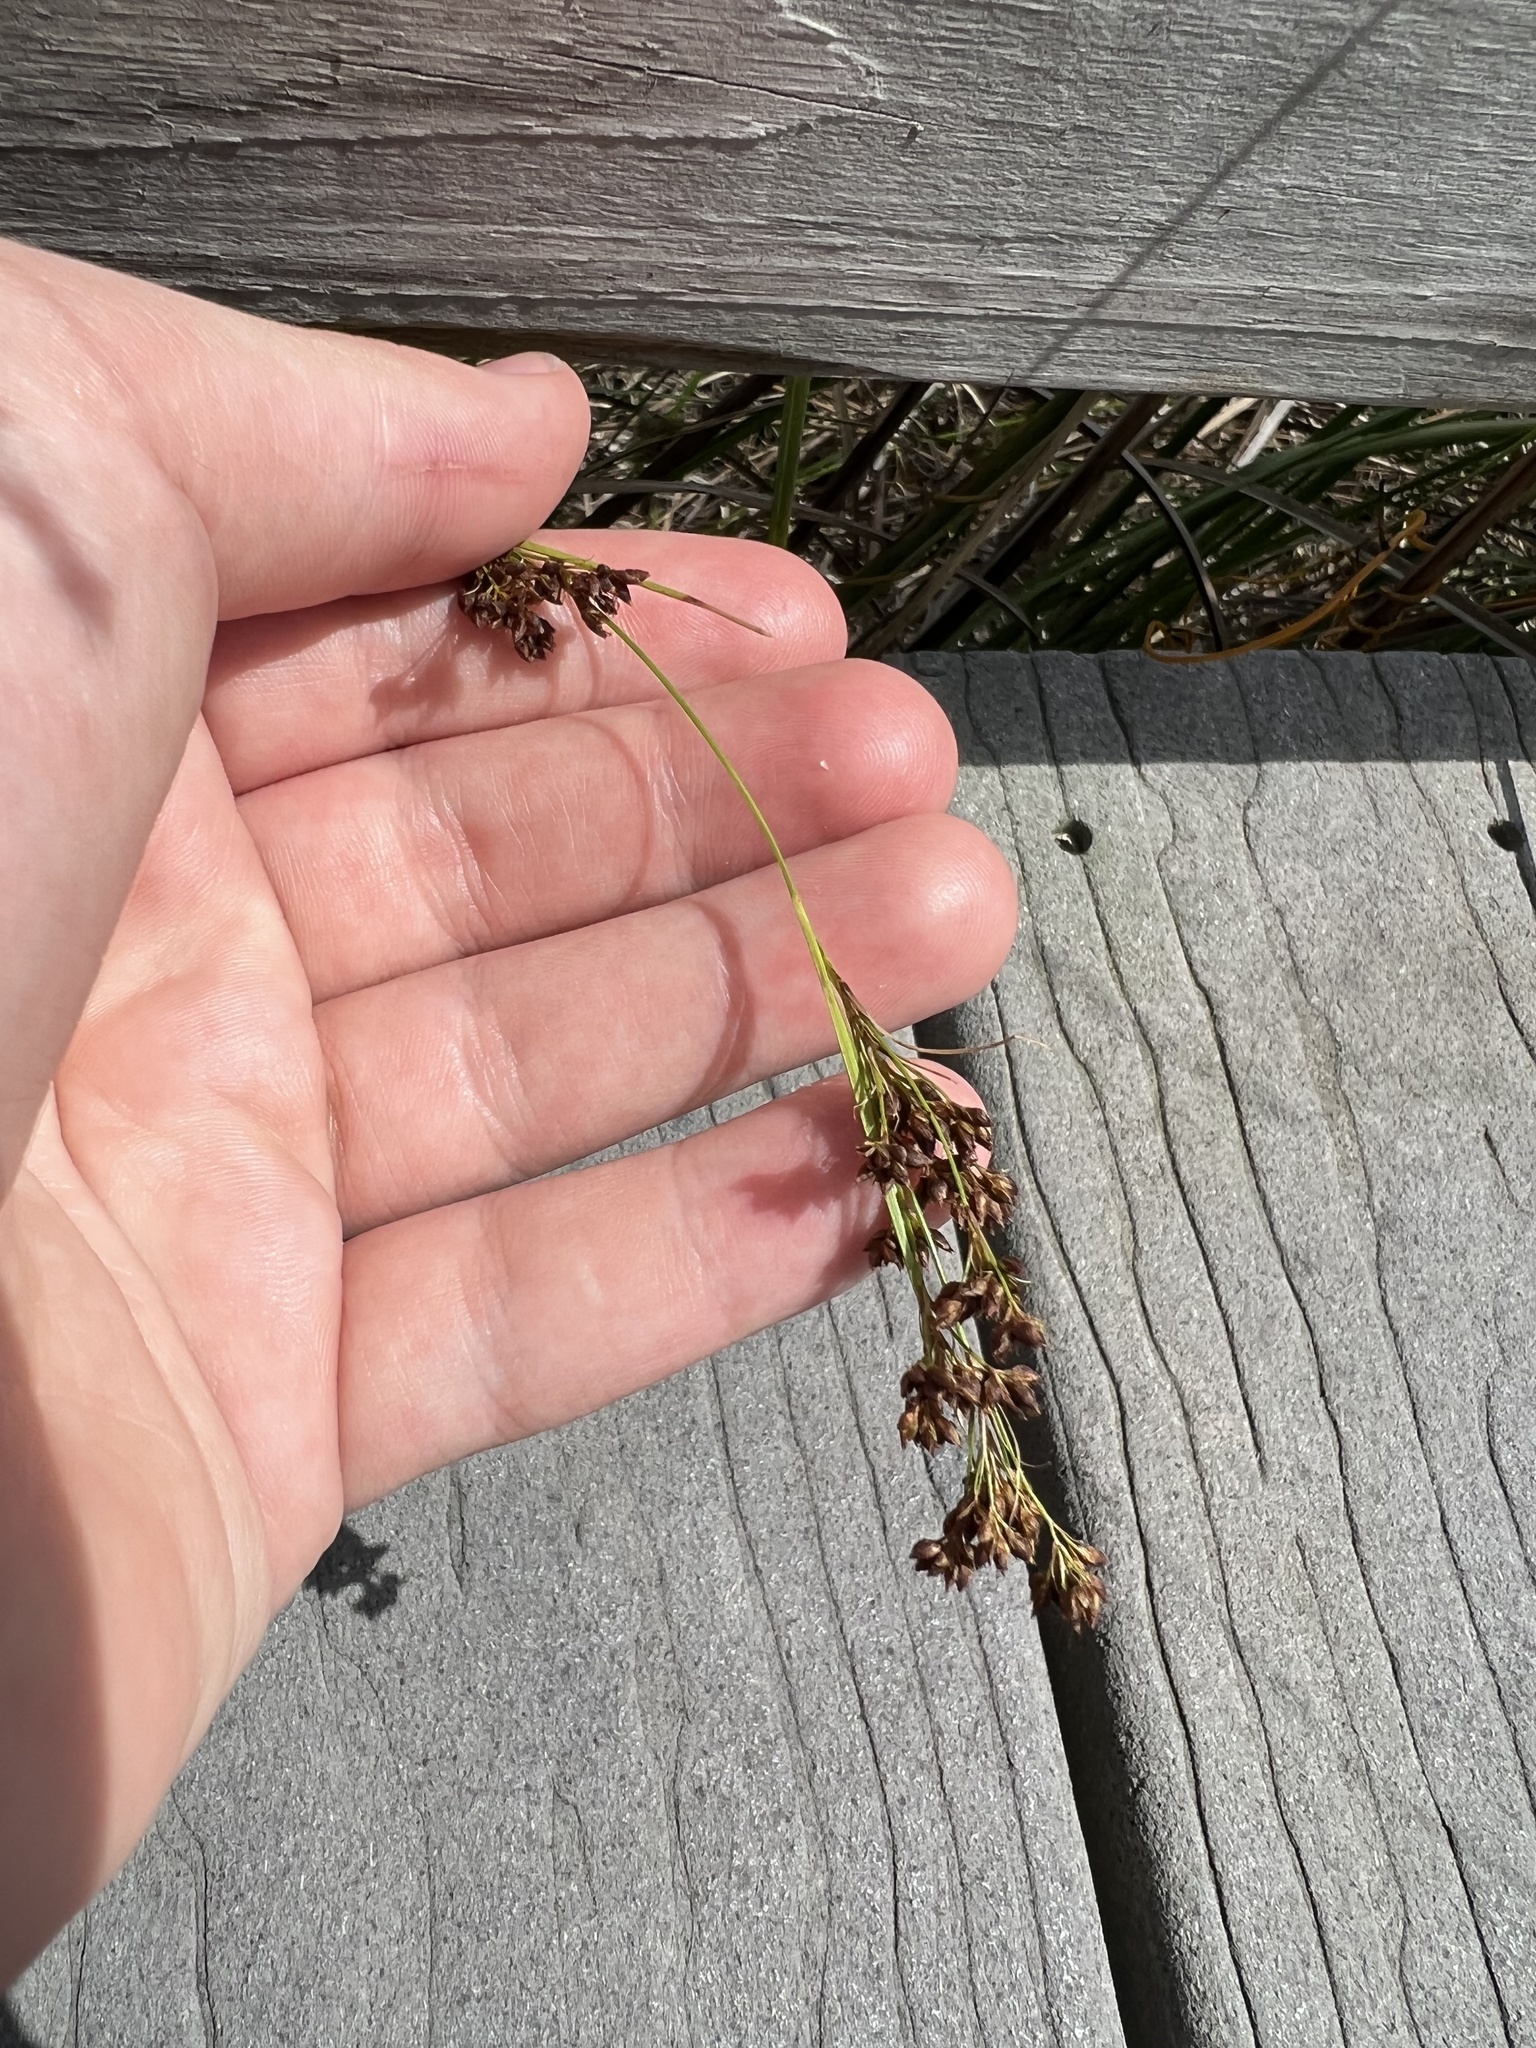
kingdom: Plantae
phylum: Tracheophyta
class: Liliopsida
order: Poales
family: Cyperaceae
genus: Rhynchospora
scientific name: Rhynchospora microcarpa
